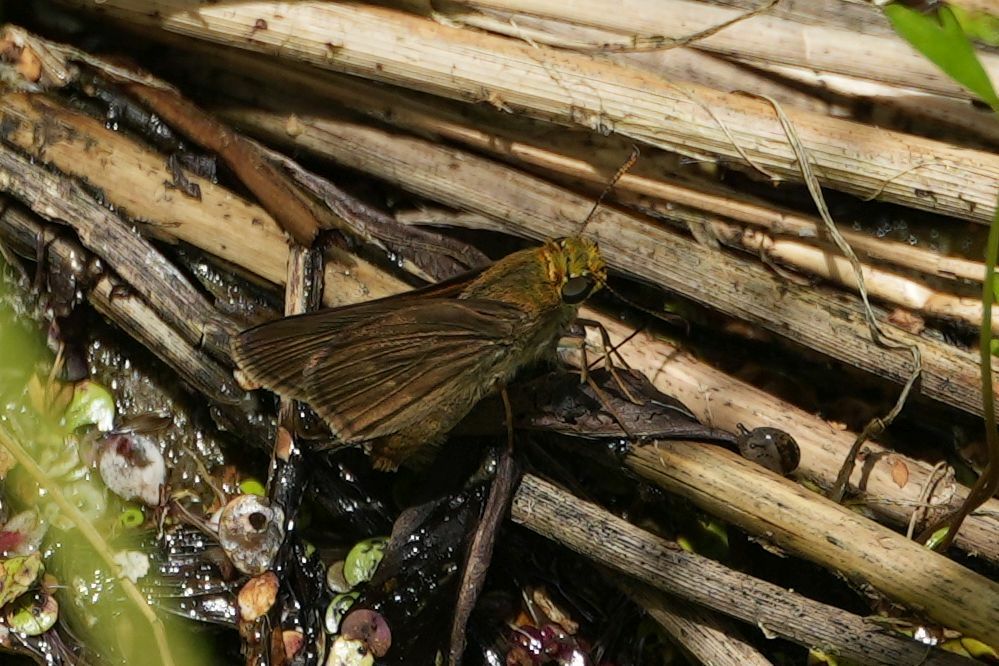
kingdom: Animalia
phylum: Arthropoda
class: Insecta
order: Lepidoptera
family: Hesperiidae
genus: Euphyes
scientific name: Euphyes vestris
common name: Dun skipper
